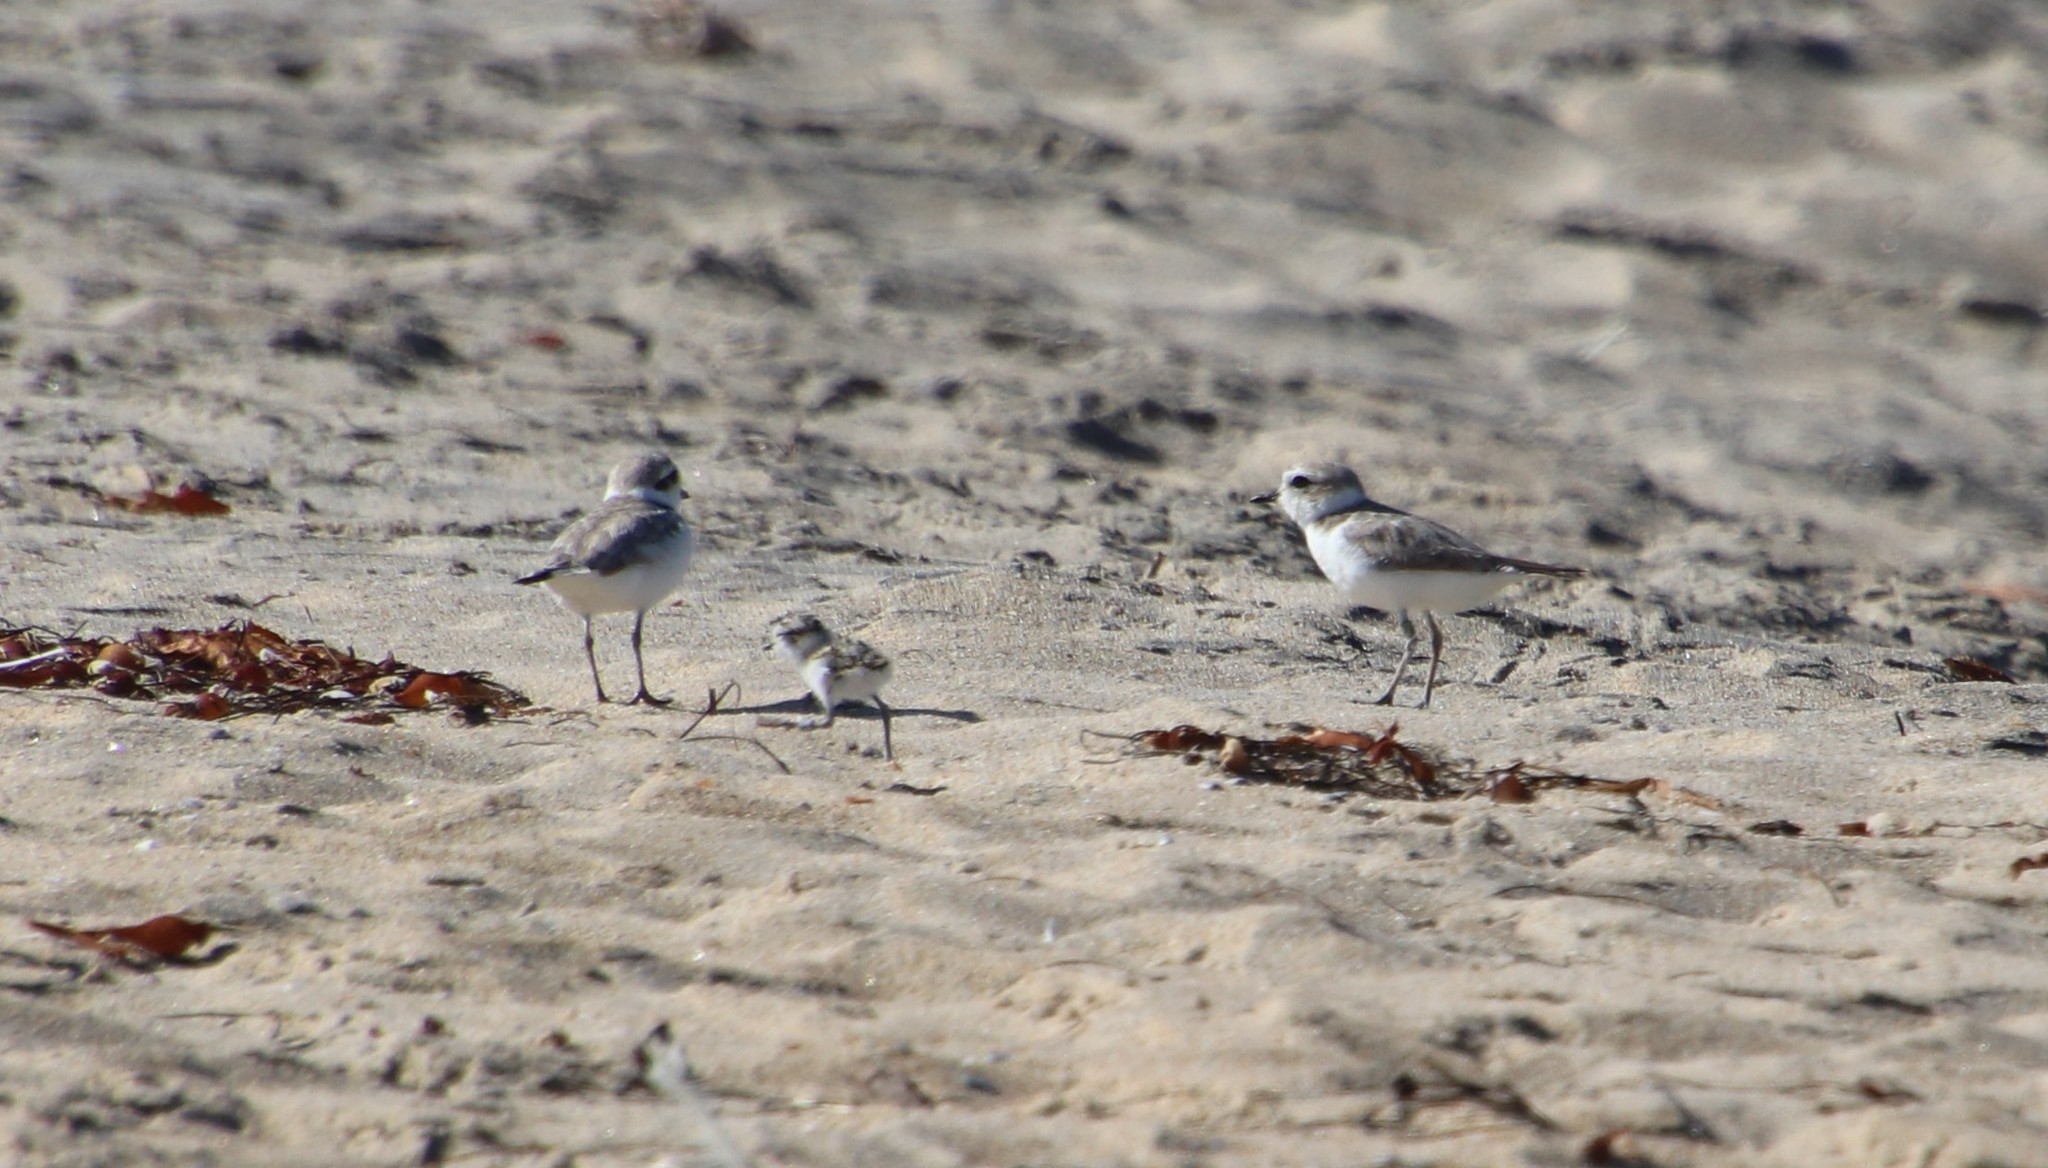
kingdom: Animalia
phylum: Chordata
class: Aves
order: Charadriiformes
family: Charadriidae
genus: Anarhynchus
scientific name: Anarhynchus
